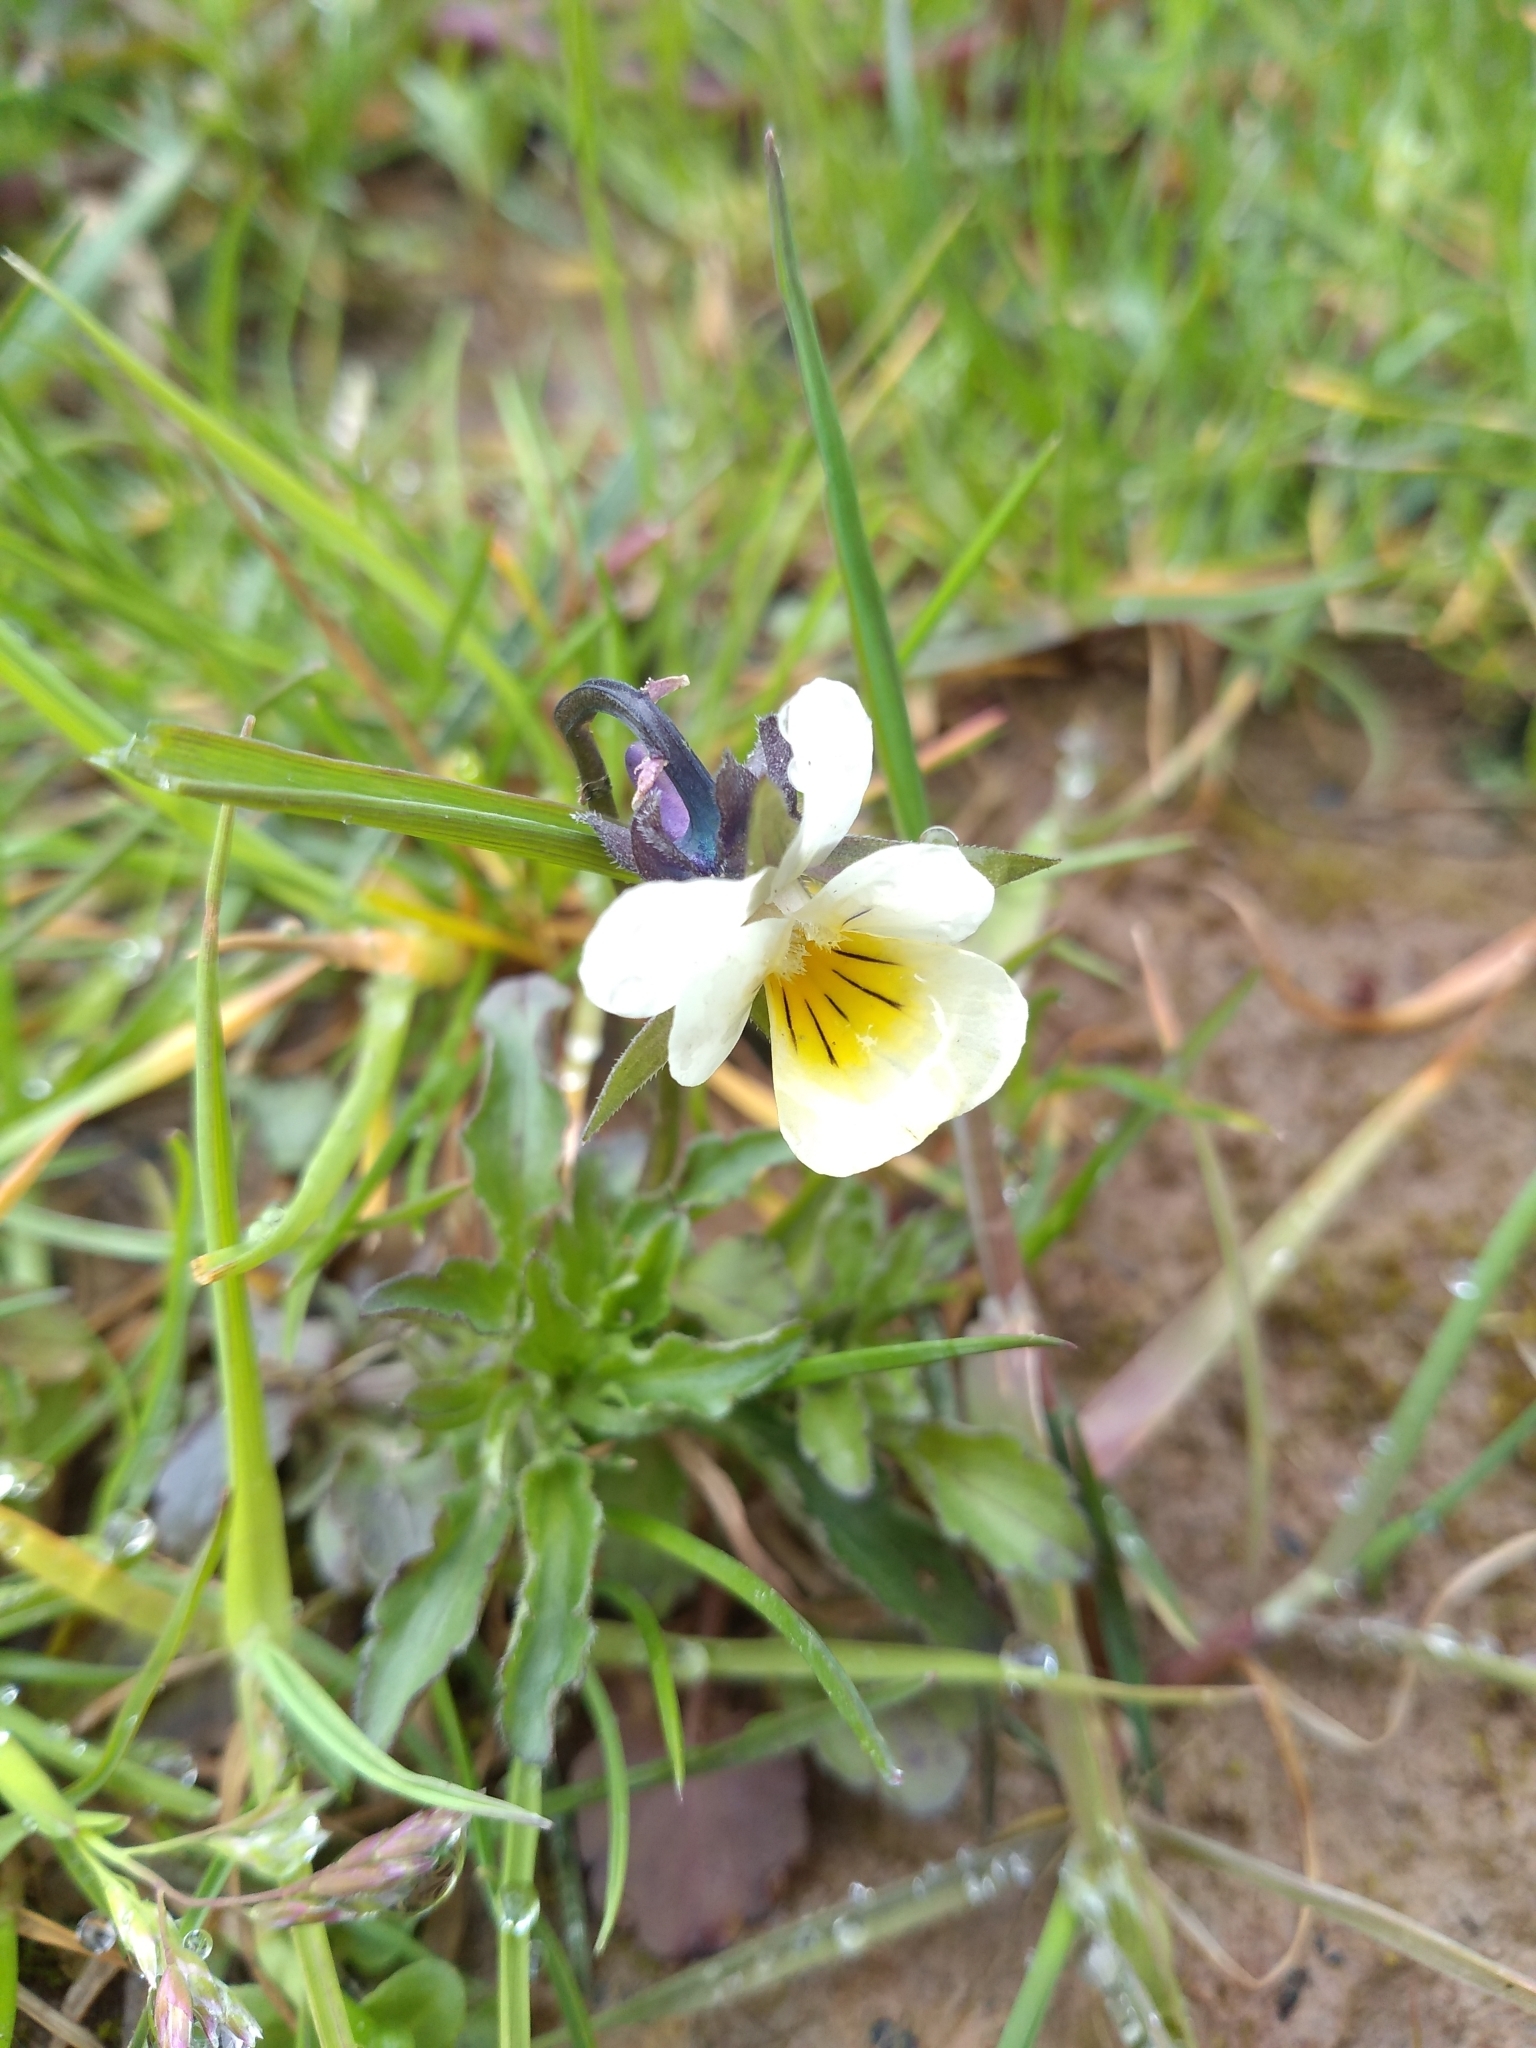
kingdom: Plantae
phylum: Tracheophyta
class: Magnoliopsida
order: Malpighiales
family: Violaceae
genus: Viola
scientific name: Viola arvensis
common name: Field pansy
